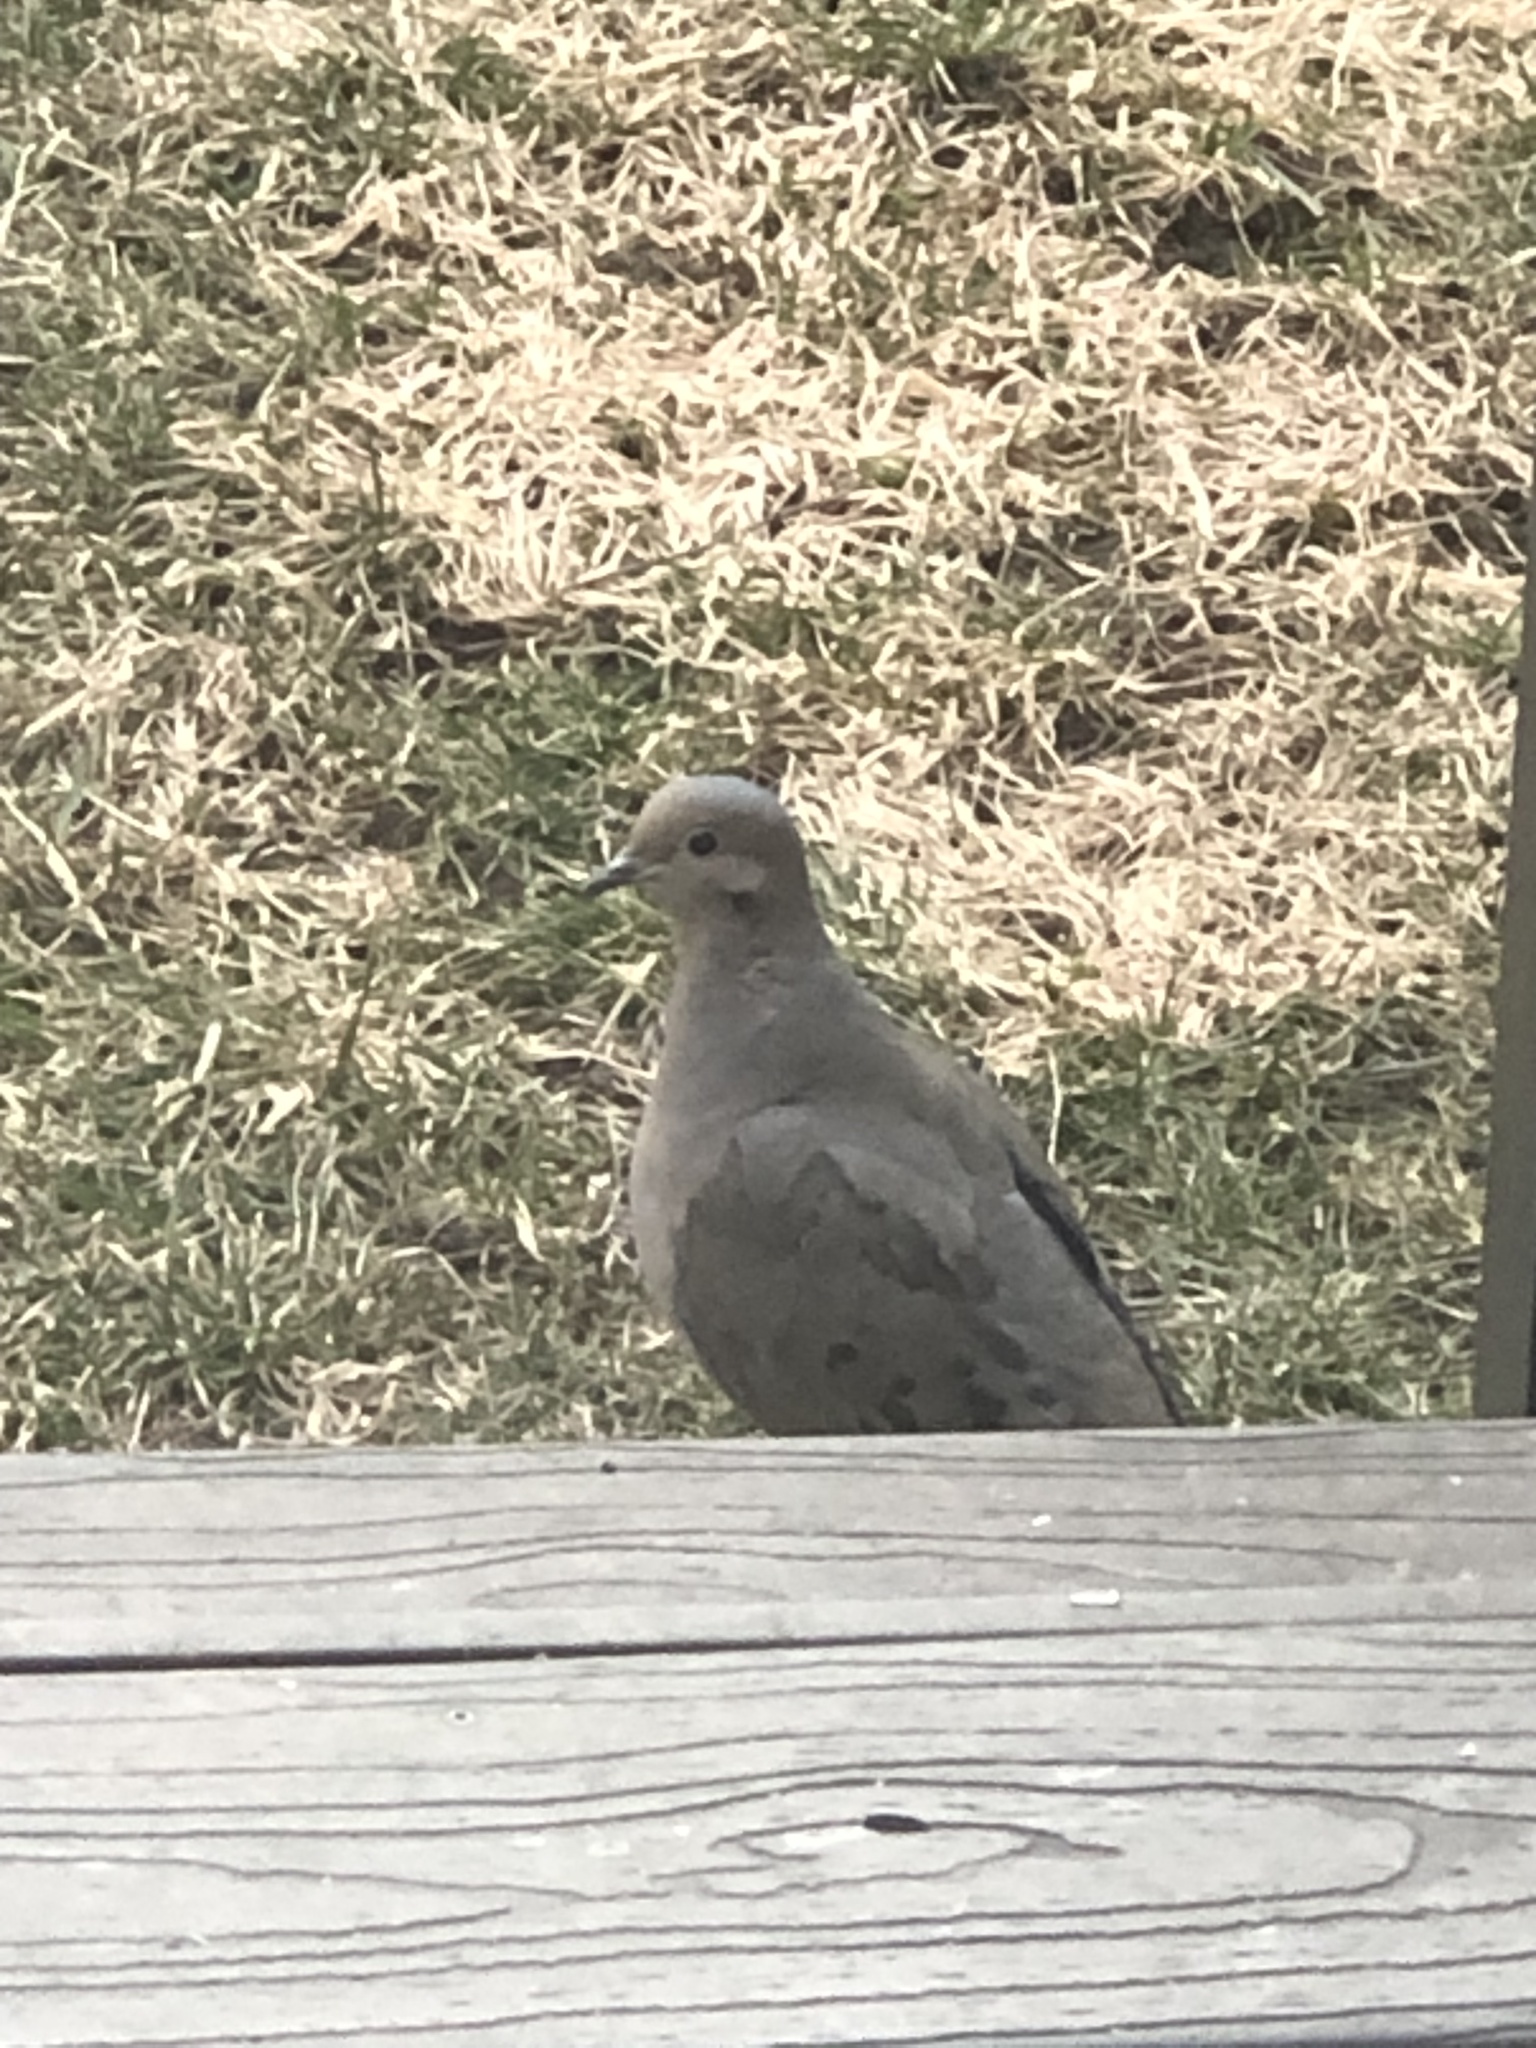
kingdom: Animalia
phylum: Chordata
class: Aves
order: Columbiformes
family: Columbidae
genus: Zenaida
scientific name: Zenaida macroura
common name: Mourning dove
